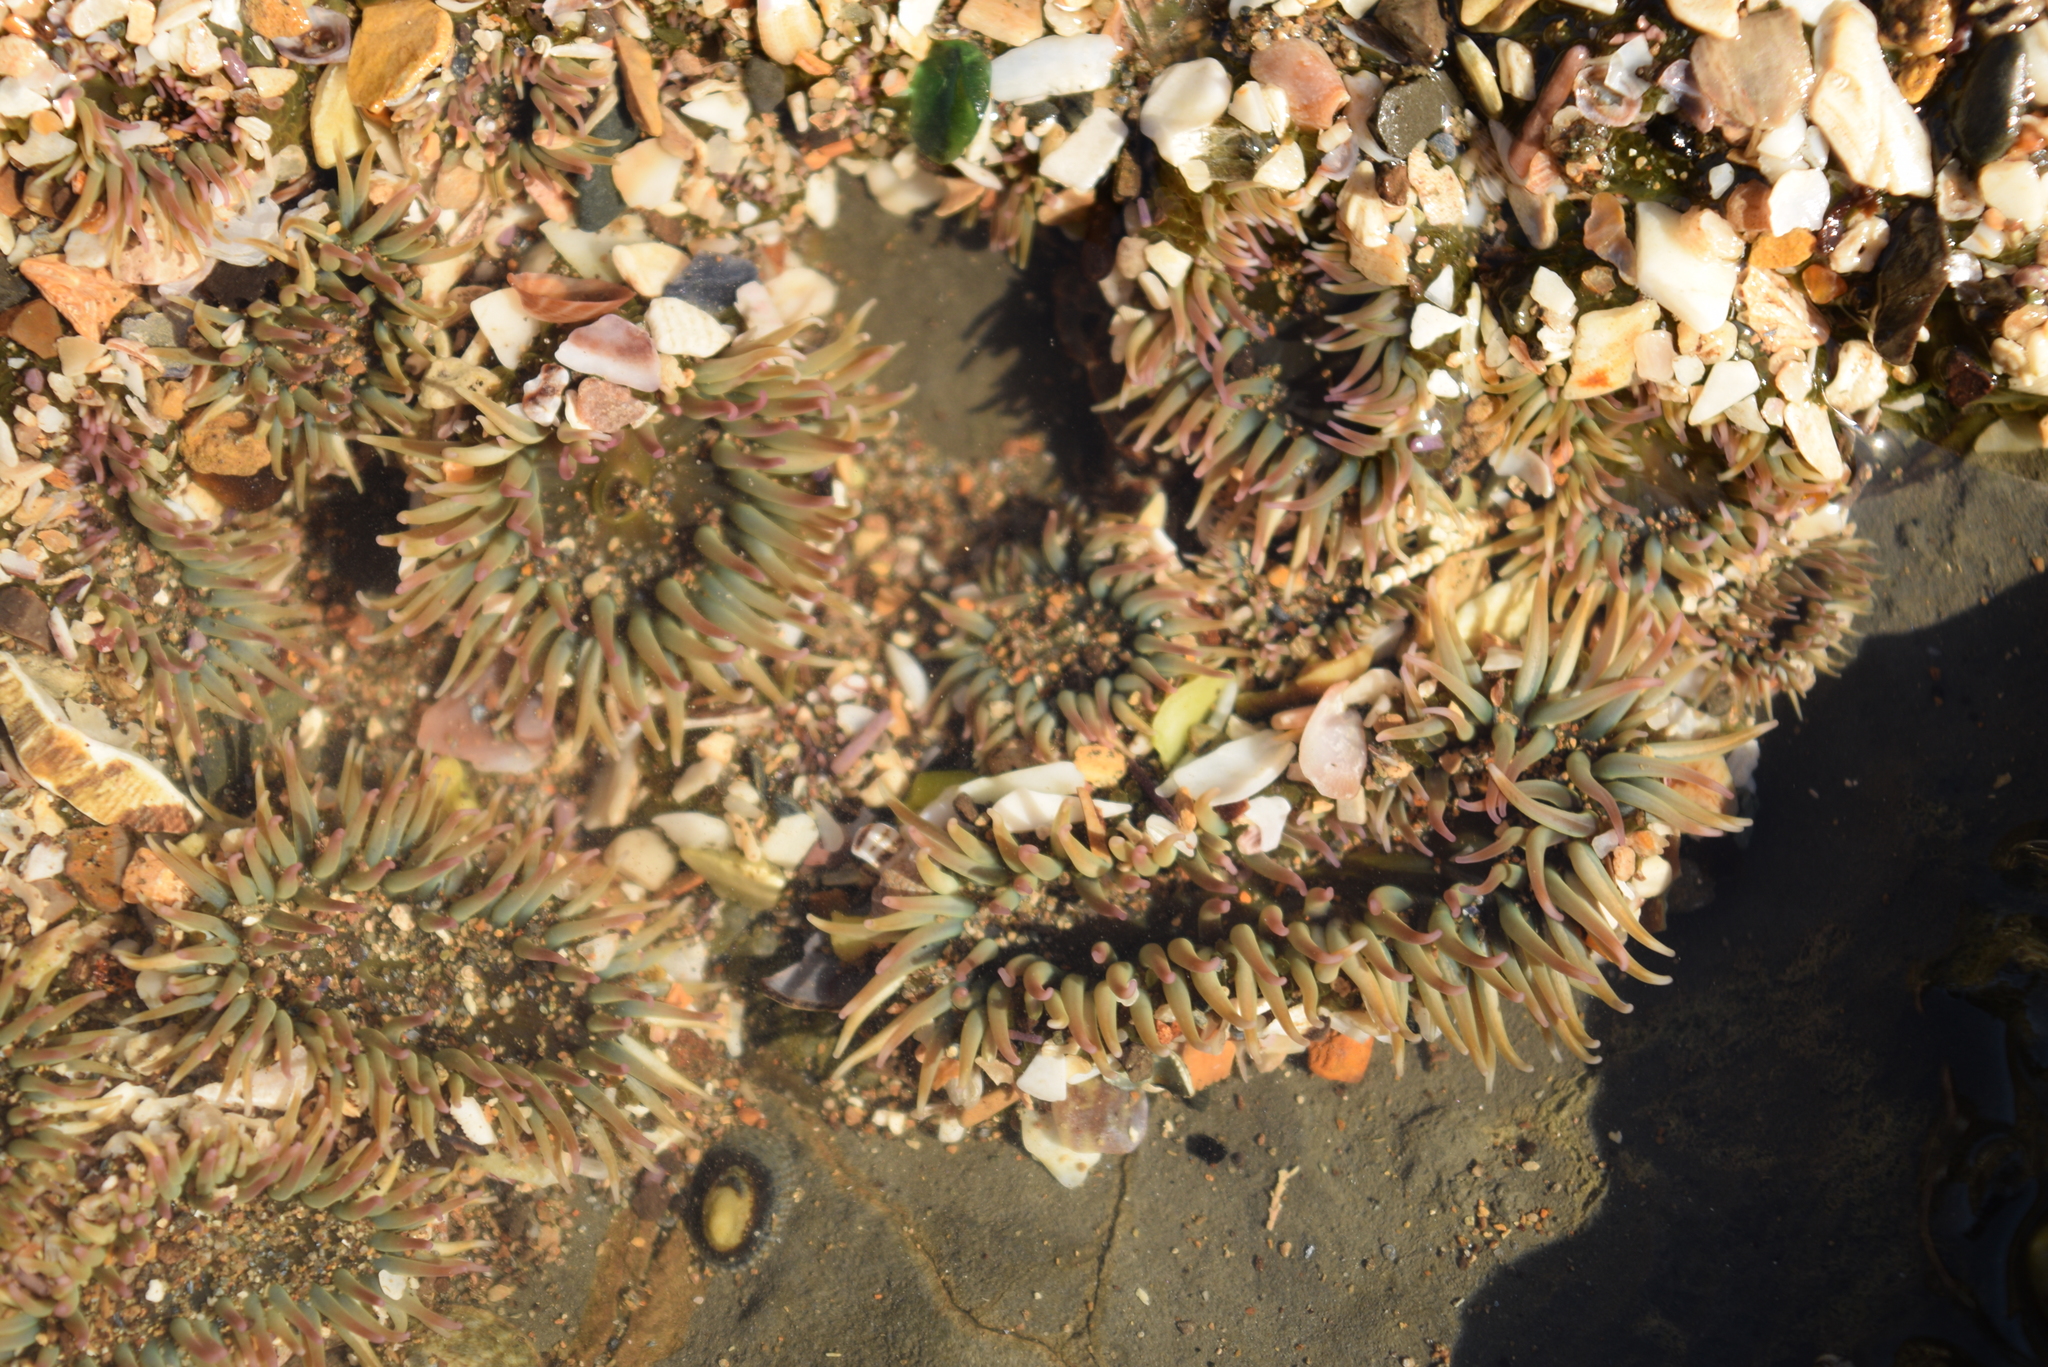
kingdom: Animalia
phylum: Cnidaria
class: Anthozoa
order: Actiniaria
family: Actiniidae
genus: Anthopleura
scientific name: Anthopleura elegantissima
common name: Clonal anemone
